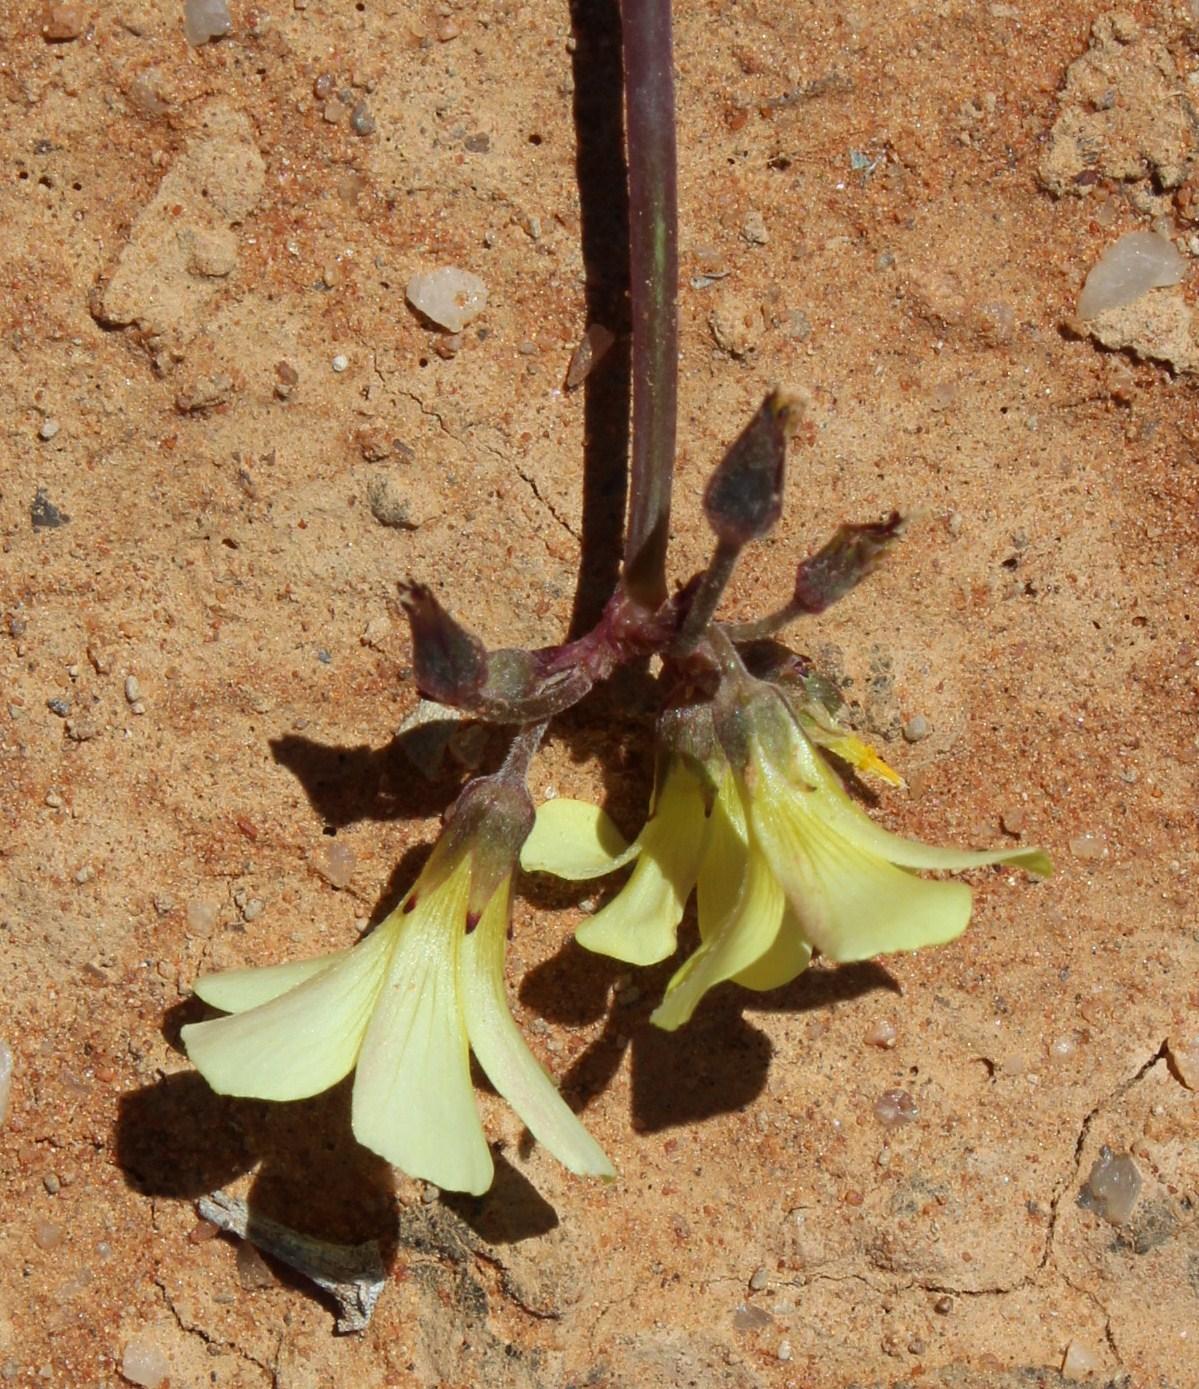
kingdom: Plantae
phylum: Tracheophyta
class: Magnoliopsida
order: Oxalidales
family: Oxalidaceae
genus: Oxalis
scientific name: Oxalis pes-caprae
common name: Bermuda-buttercup
